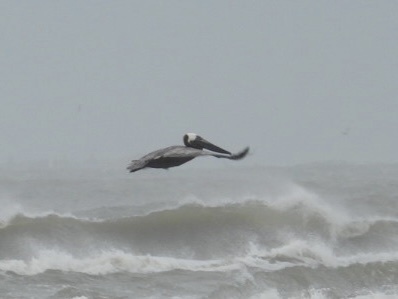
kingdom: Animalia
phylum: Chordata
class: Aves
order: Pelecaniformes
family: Pelecanidae
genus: Pelecanus
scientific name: Pelecanus occidentalis
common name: Brown pelican
